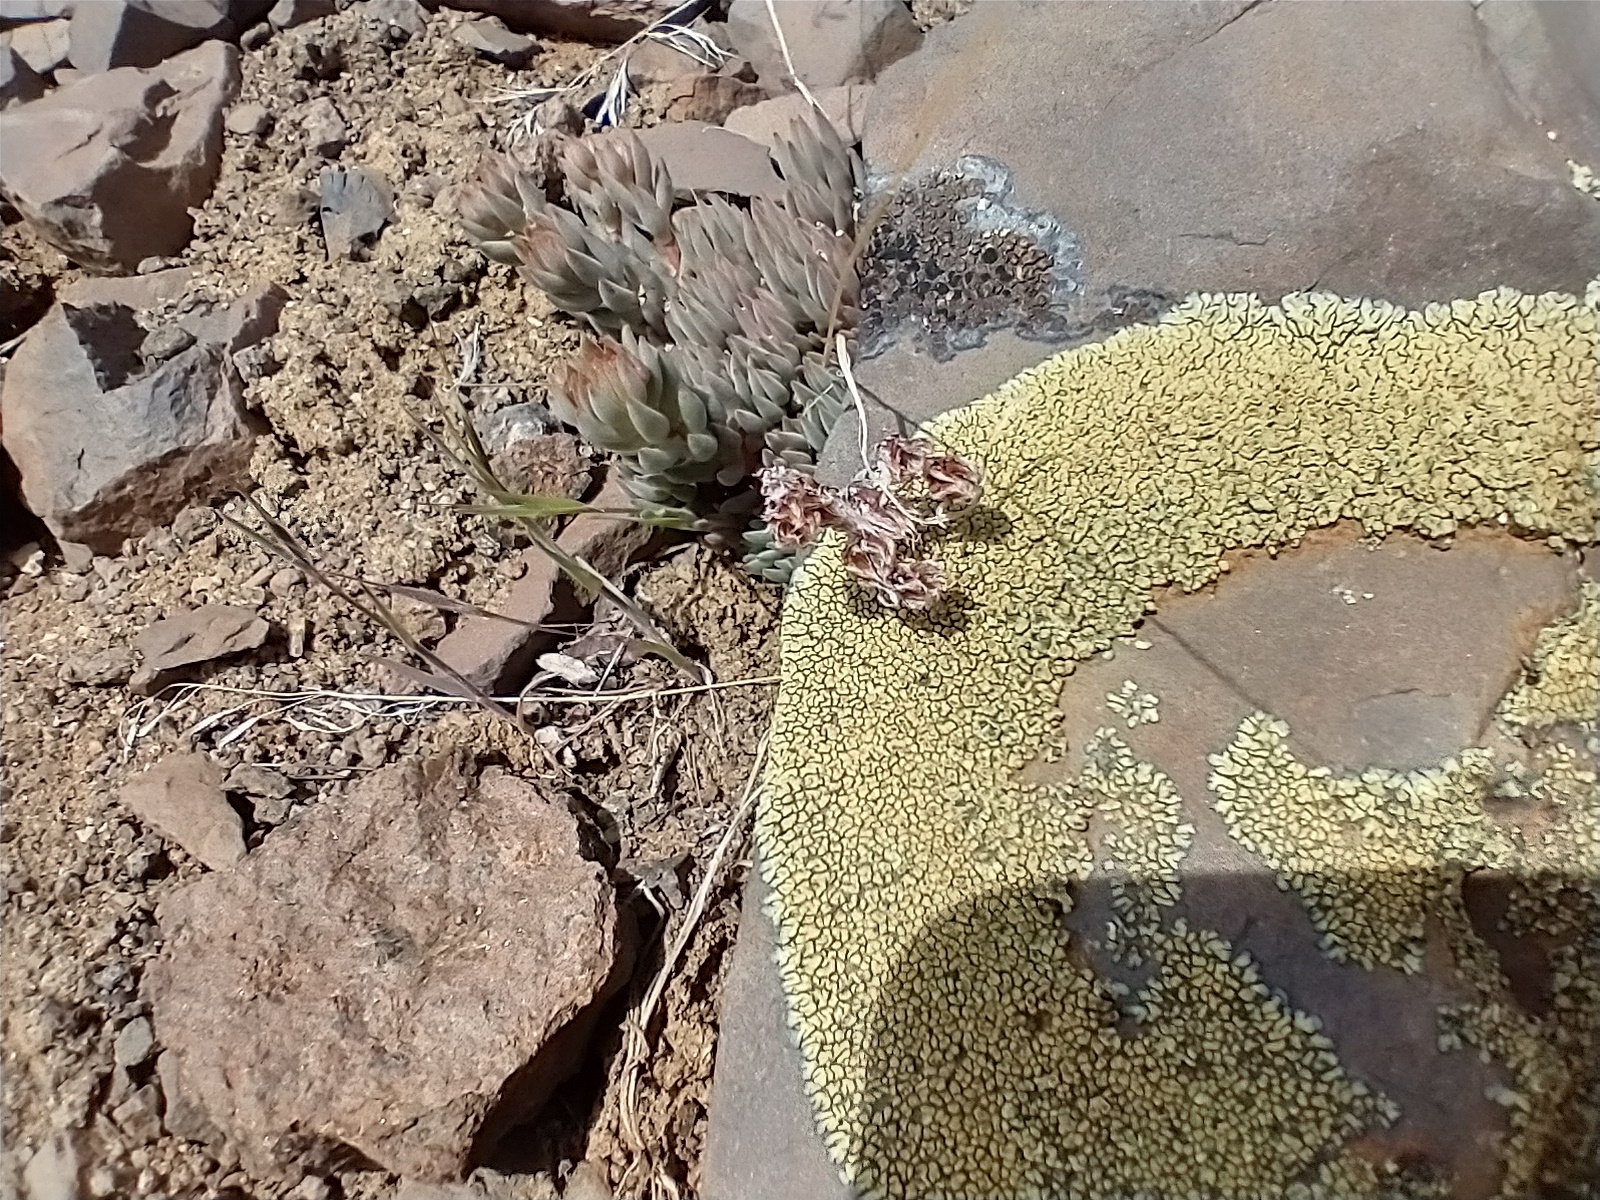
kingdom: Plantae
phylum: Tracheophyta
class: Magnoliopsida
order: Saxifragales
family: Crassulaceae
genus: Sedum
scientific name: Sedum lanceolatum
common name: Common stonecrop
